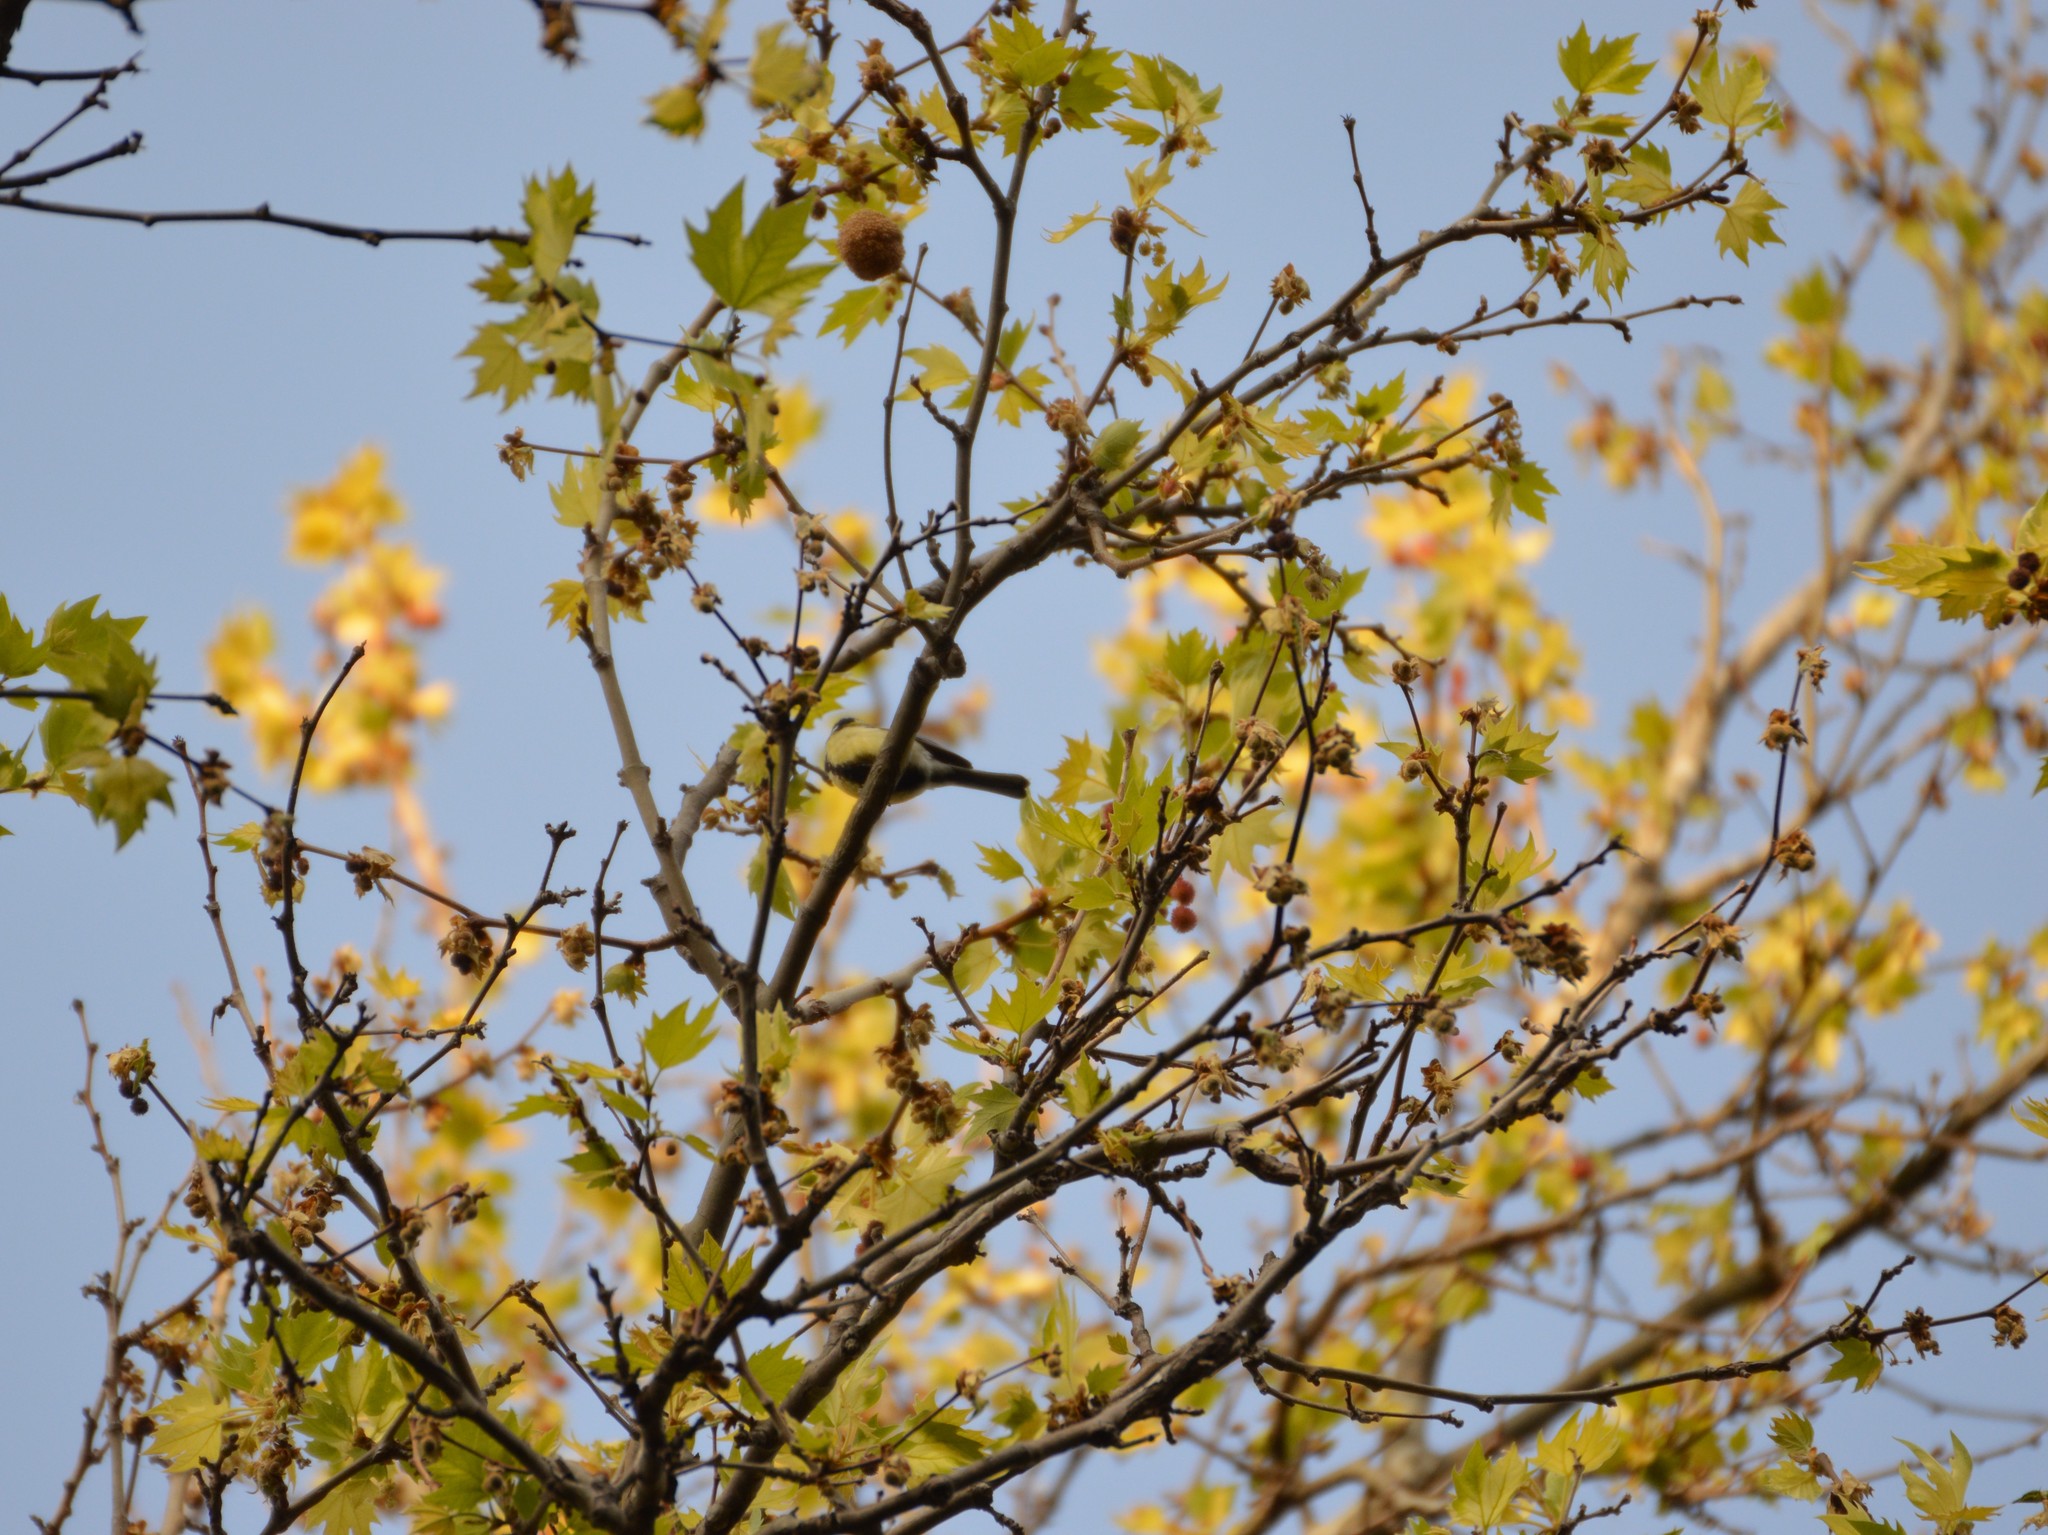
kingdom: Animalia
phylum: Chordata
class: Aves
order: Passeriformes
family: Paridae
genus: Parus
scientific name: Parus major
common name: Great tit
